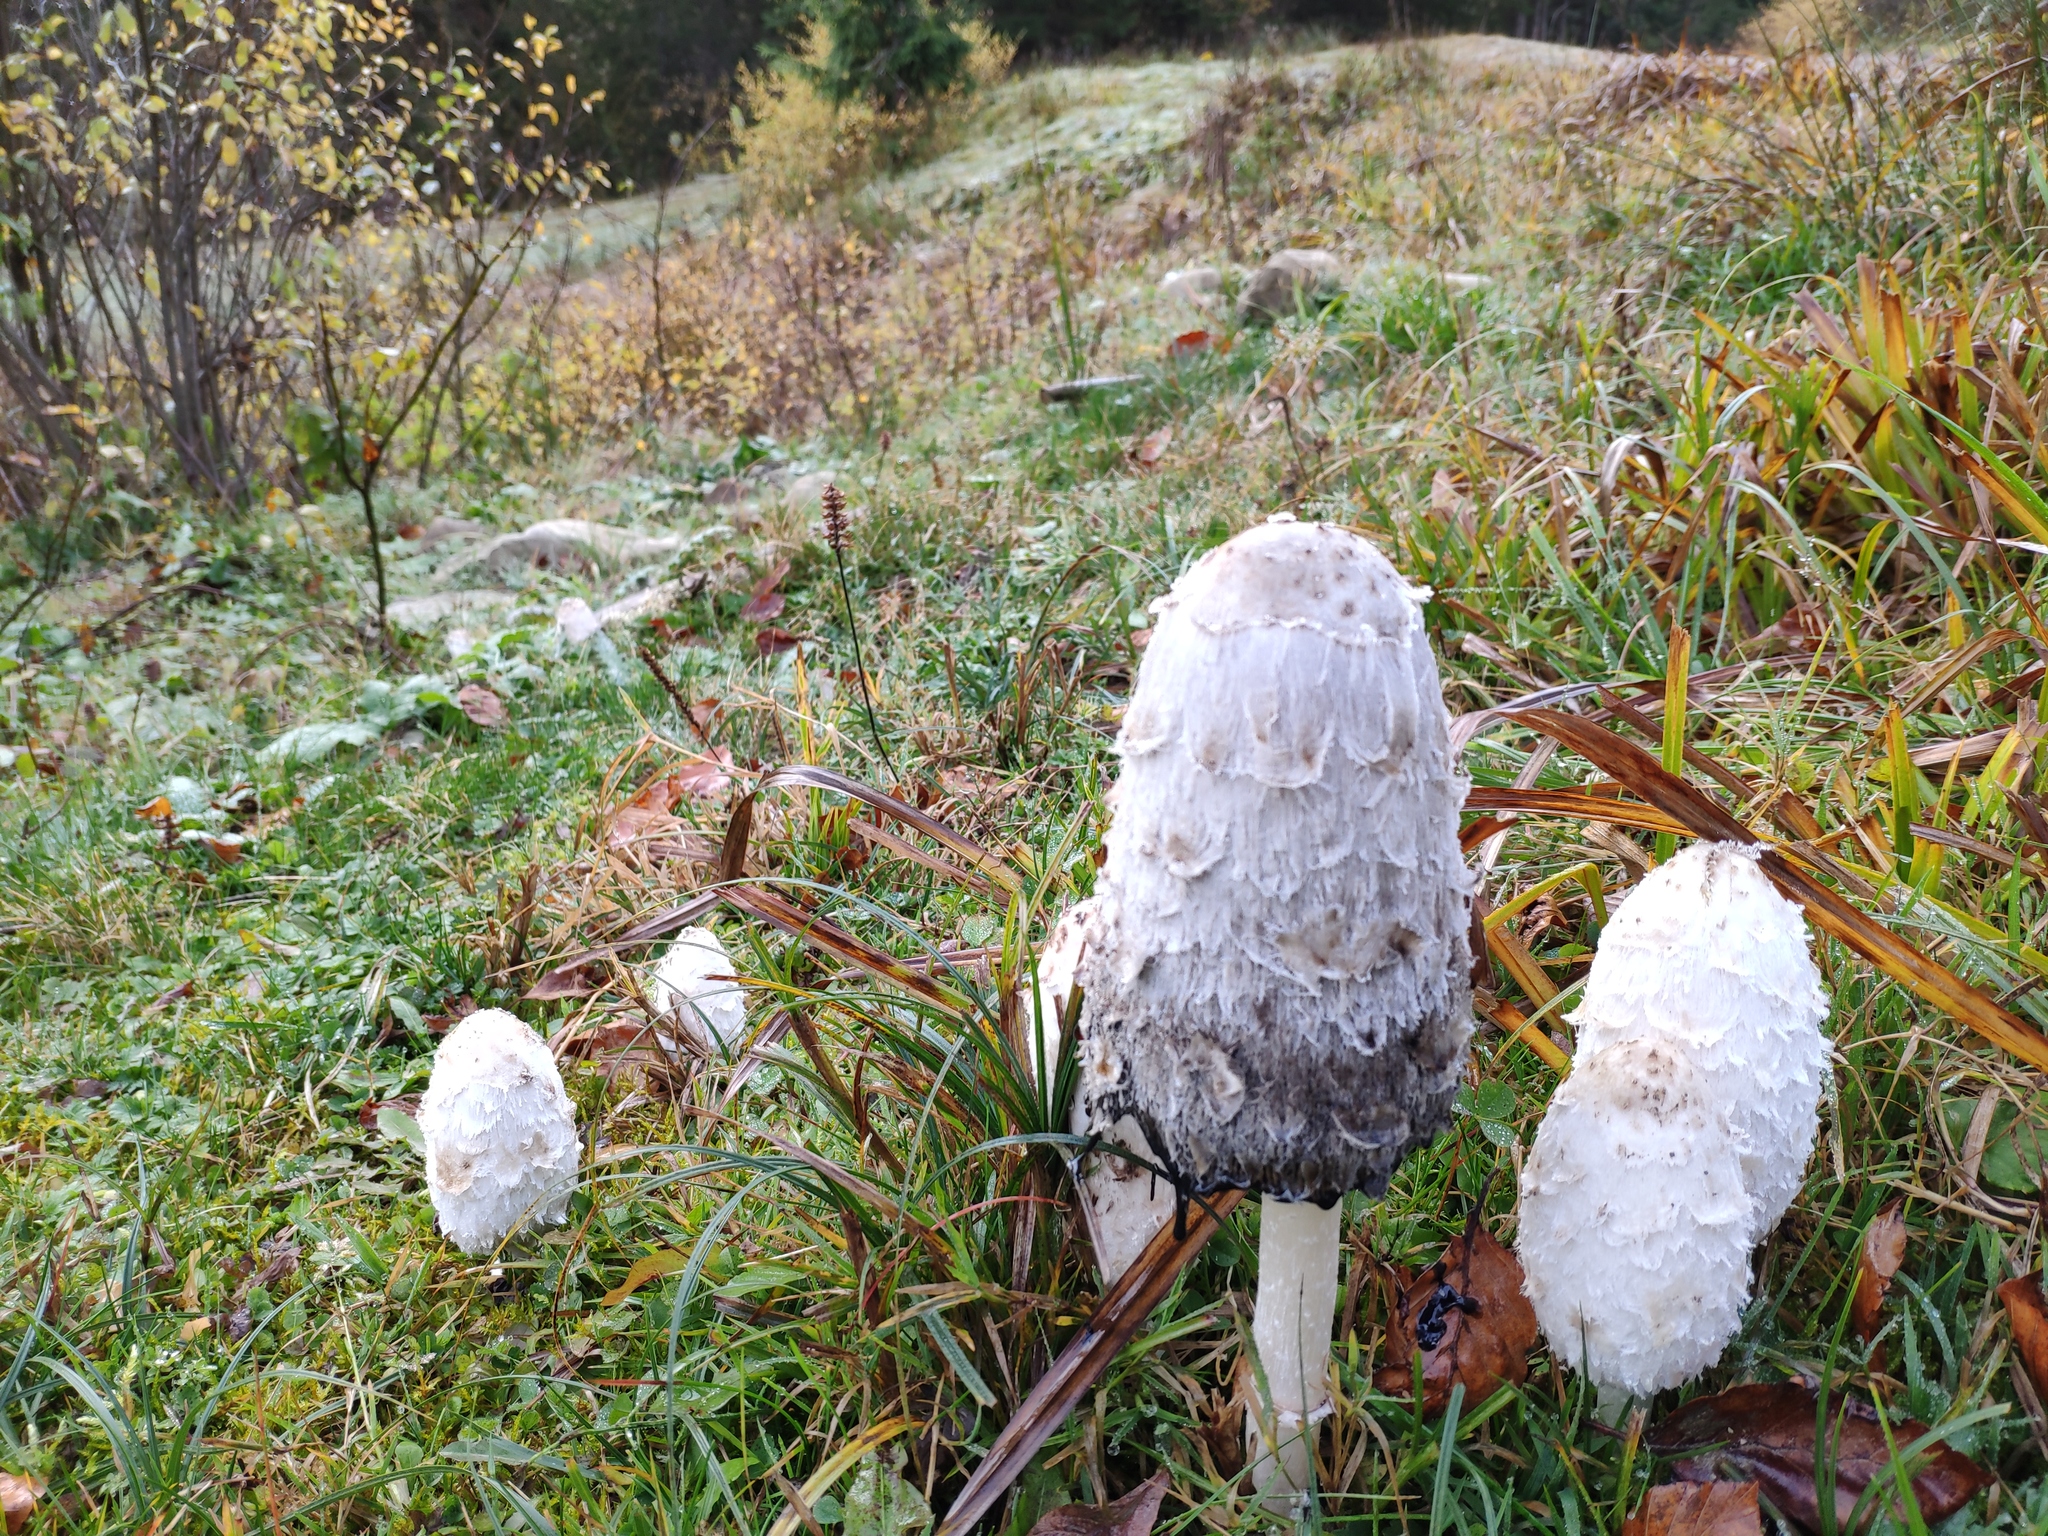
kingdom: Fungi
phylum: Basidiomycota
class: Agaricomycetes
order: Agaricales
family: Agaricaceae
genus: Coprinus
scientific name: Coprinus comatus
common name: Lawyer's wig
